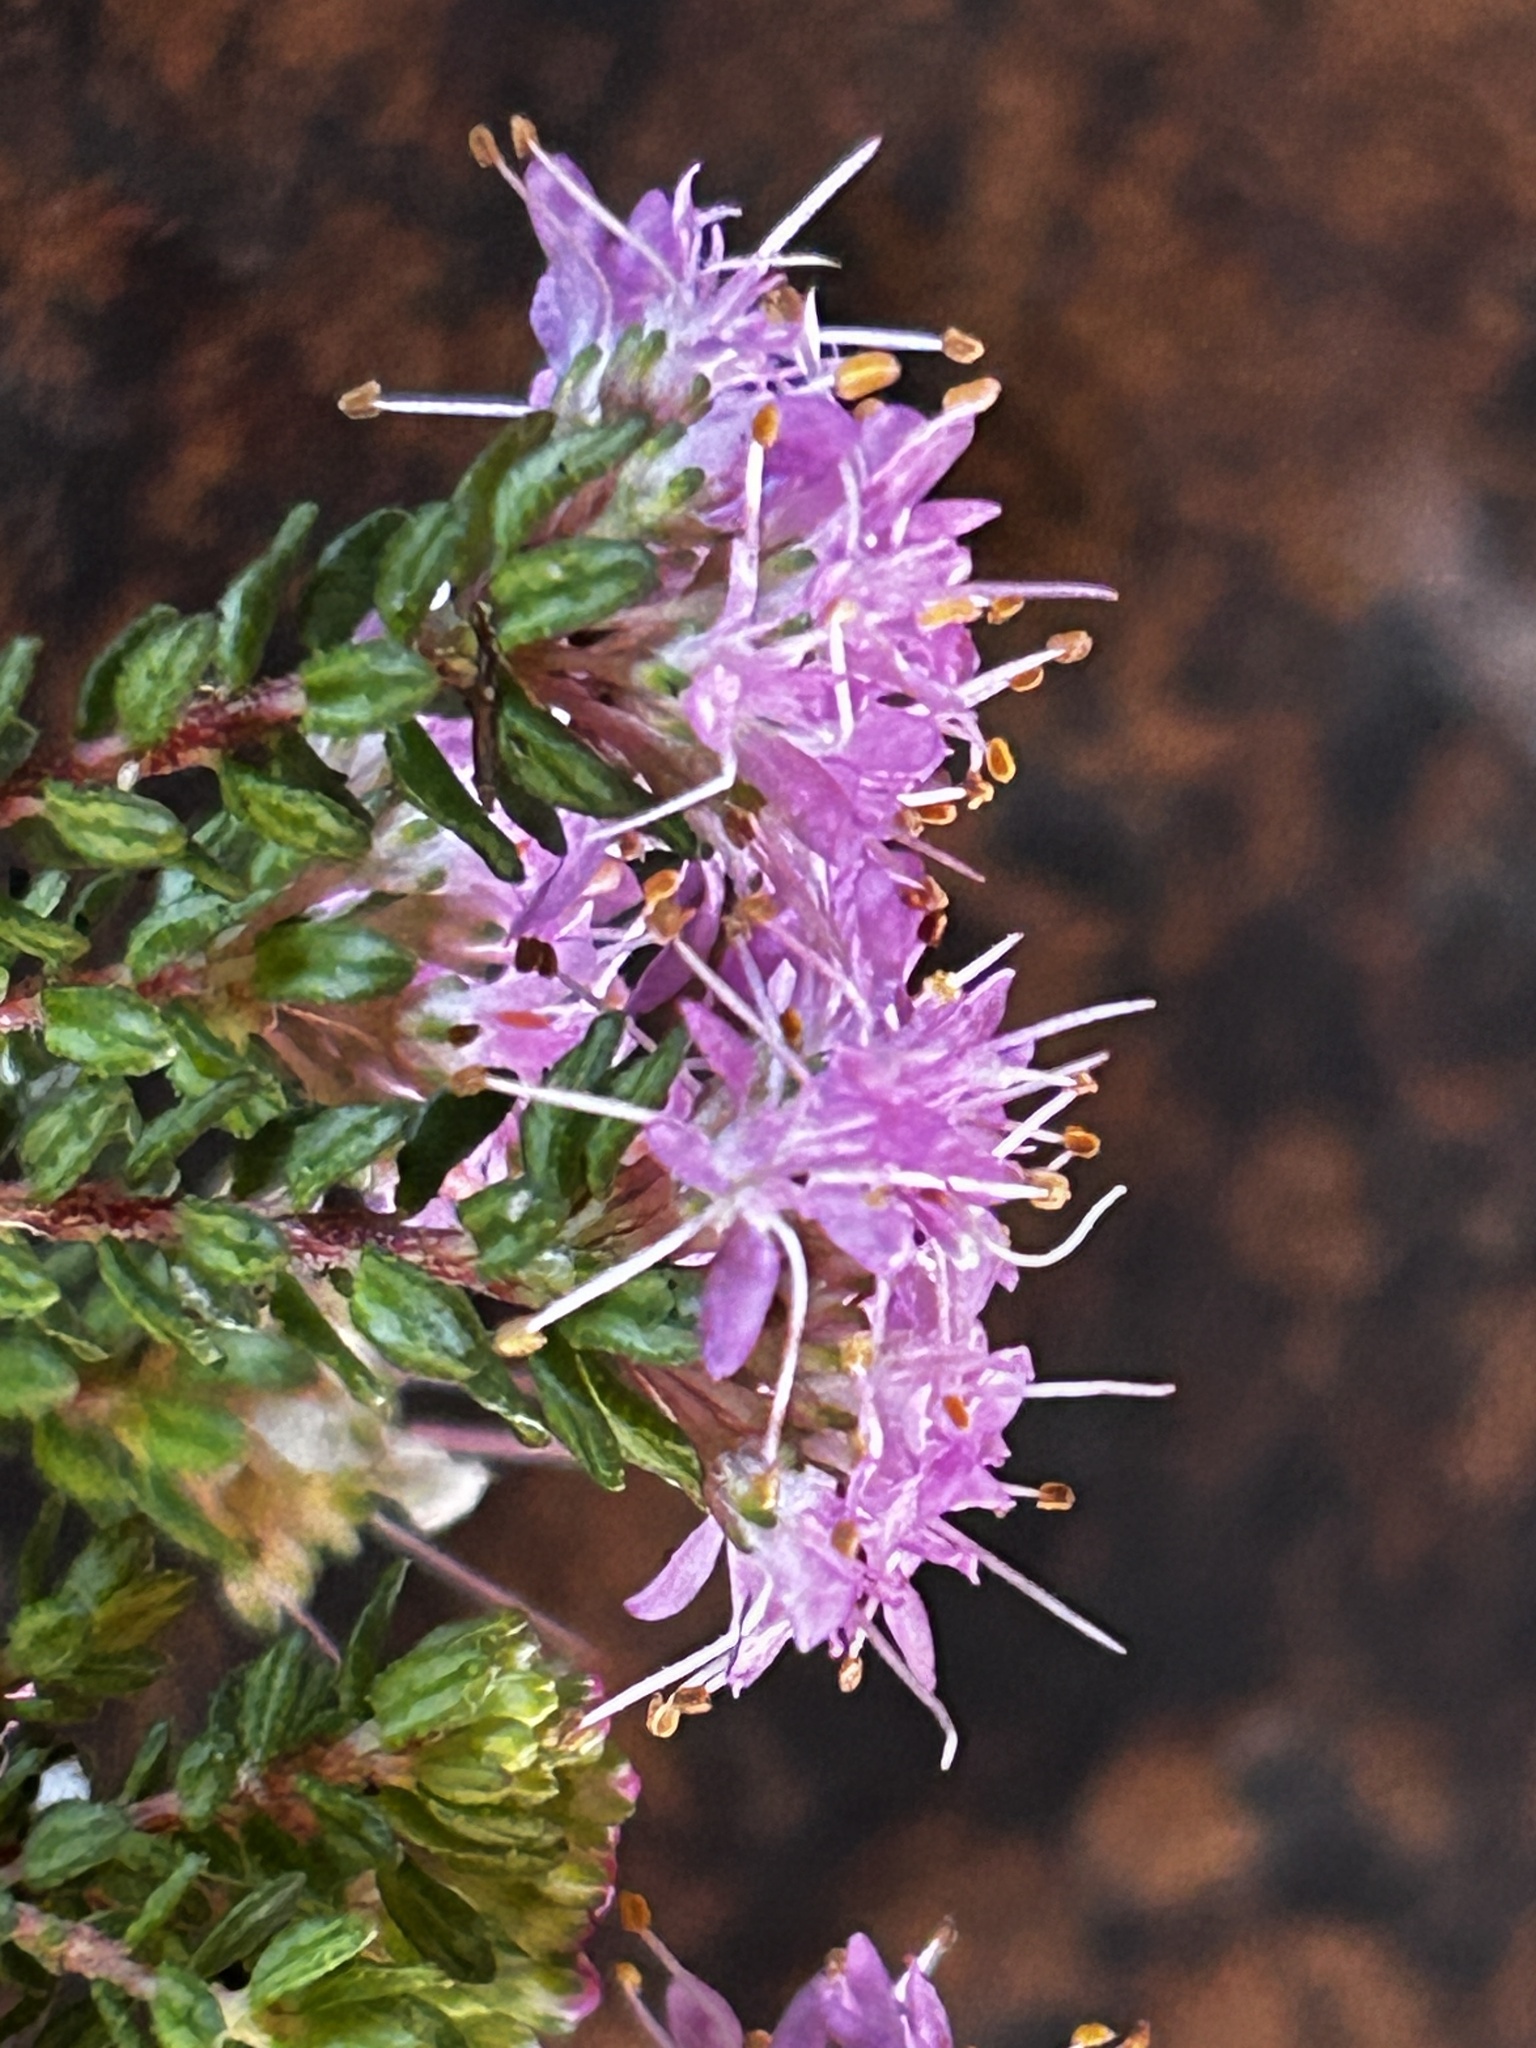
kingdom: Plantae
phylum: Tracheophyta
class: Magnoliopsida
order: Sapindales
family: Rutaceae
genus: Agathosma
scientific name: Agathosma capensis
